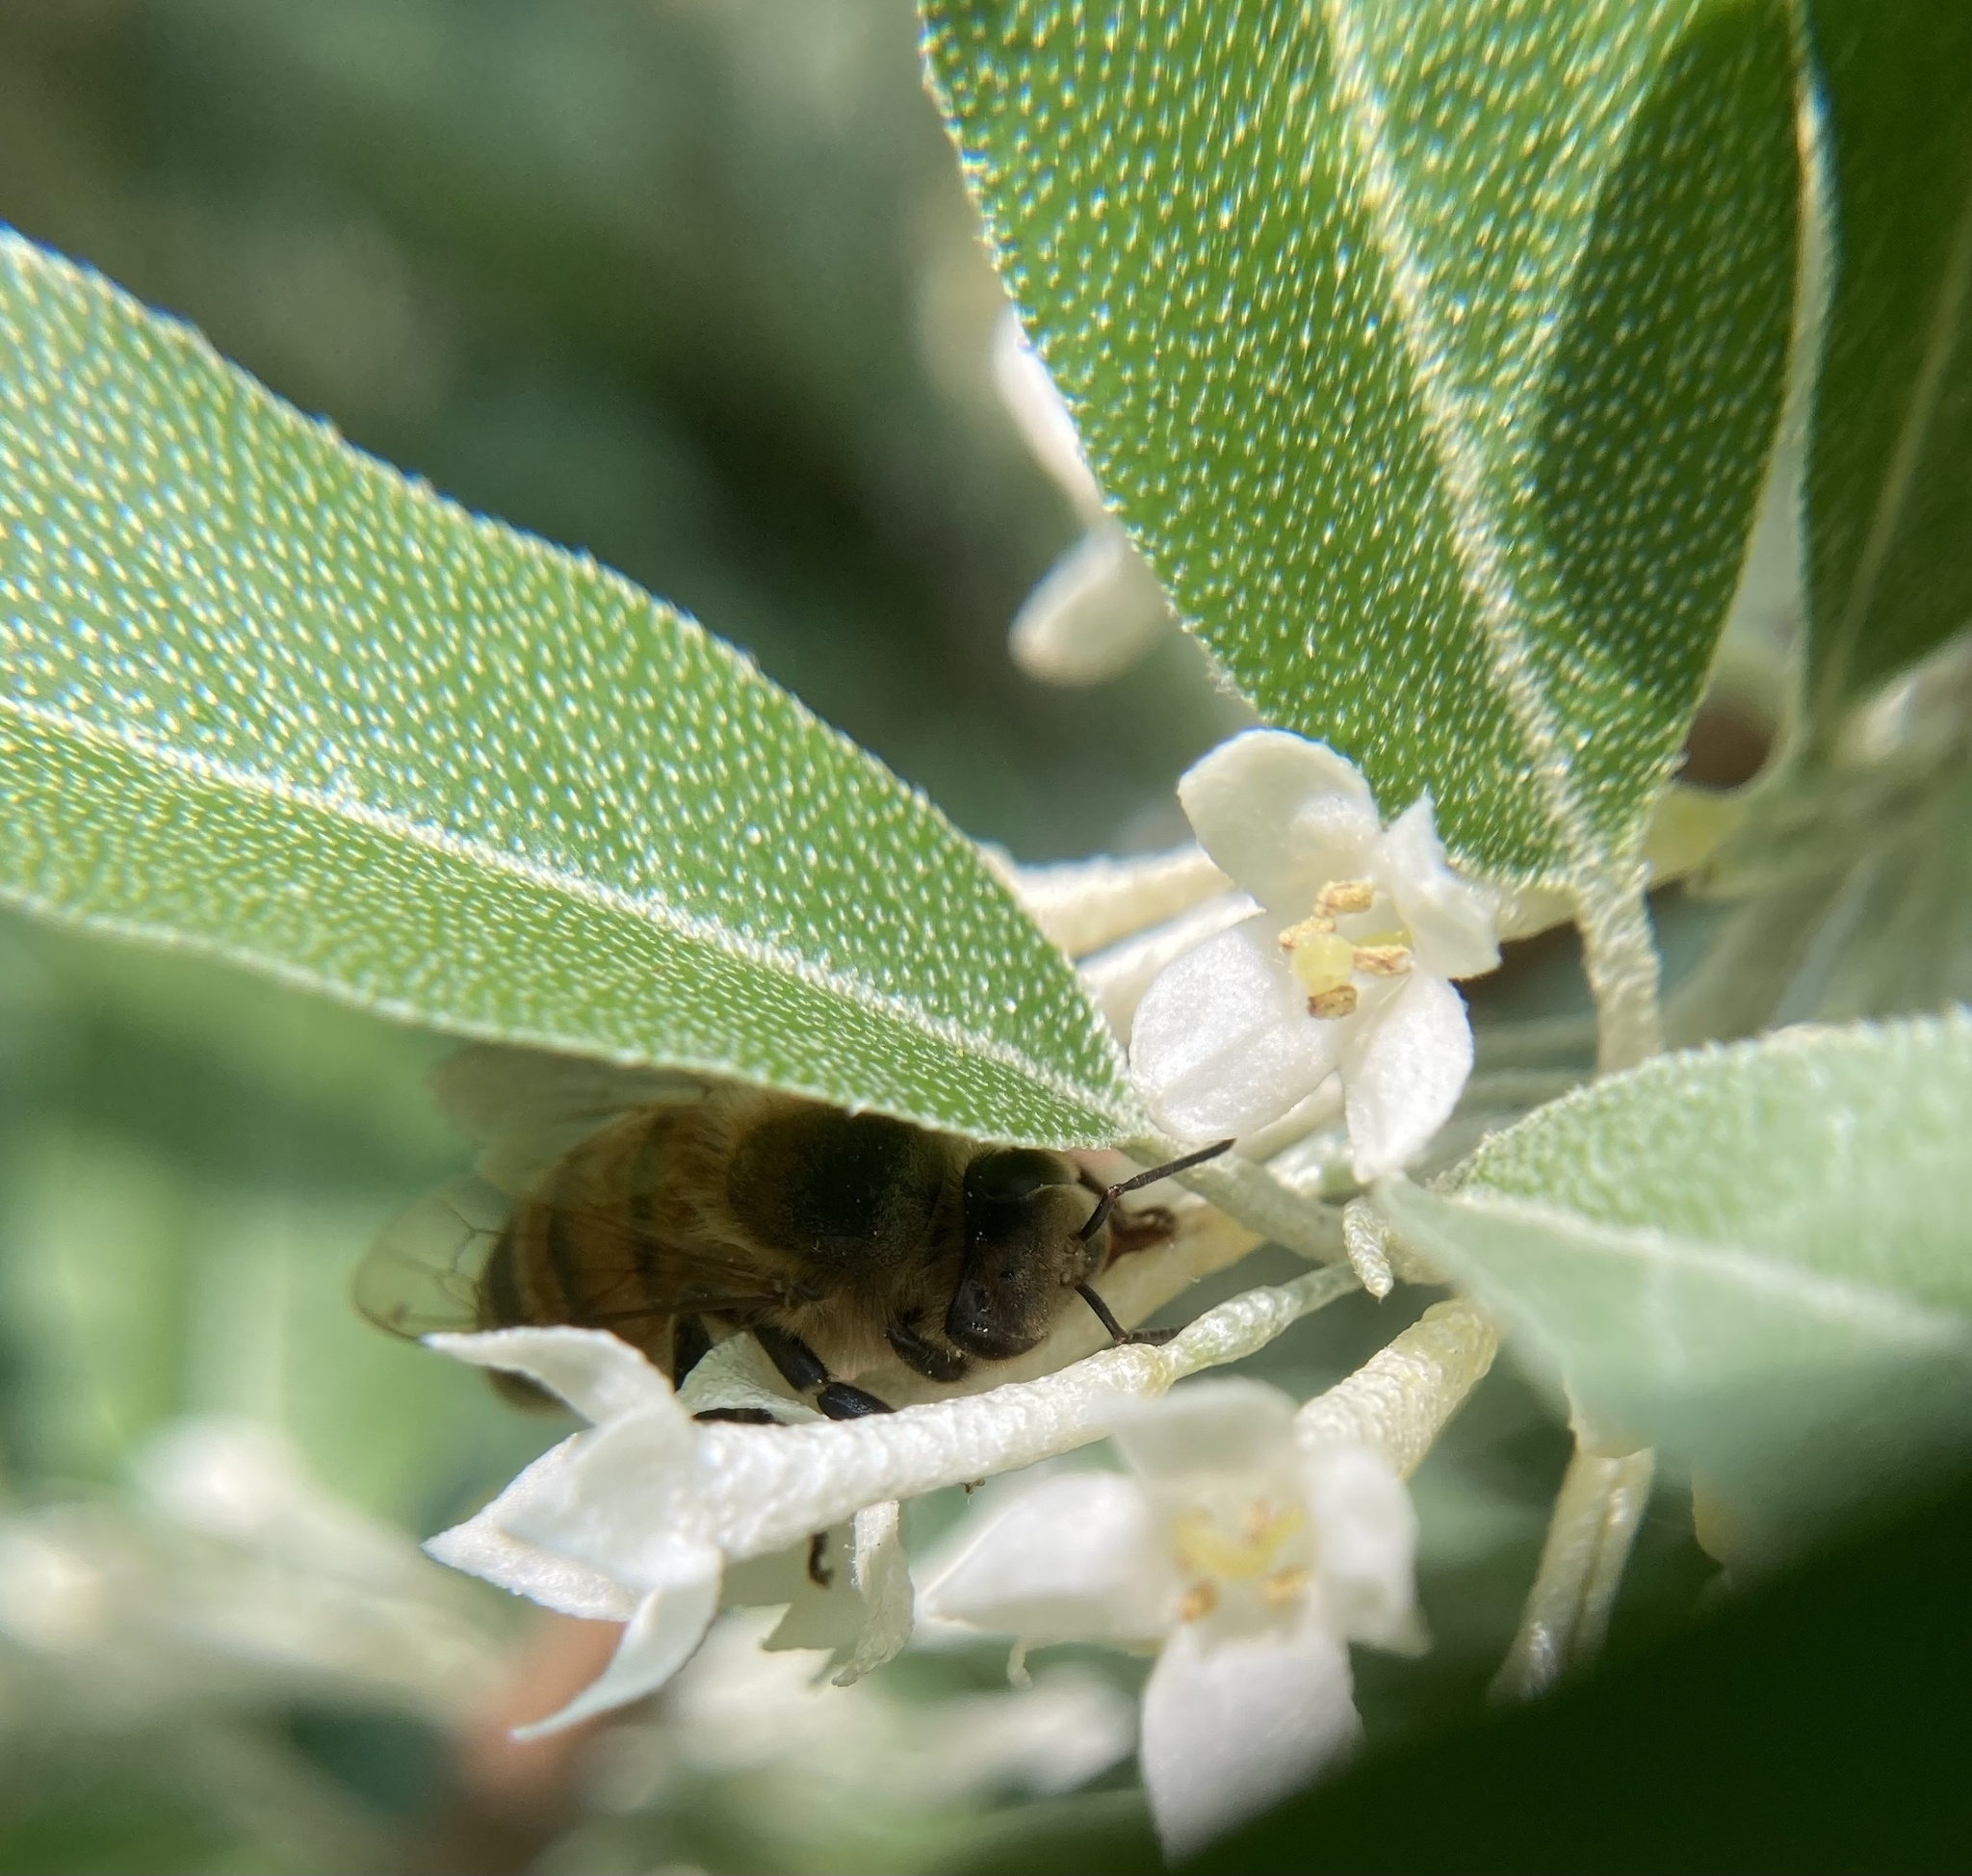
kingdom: Animalia
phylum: Arthropoda
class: Insecta
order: Hymenoptera
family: Apidae
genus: Apis
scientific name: Apis mellifera
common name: Honey bee
